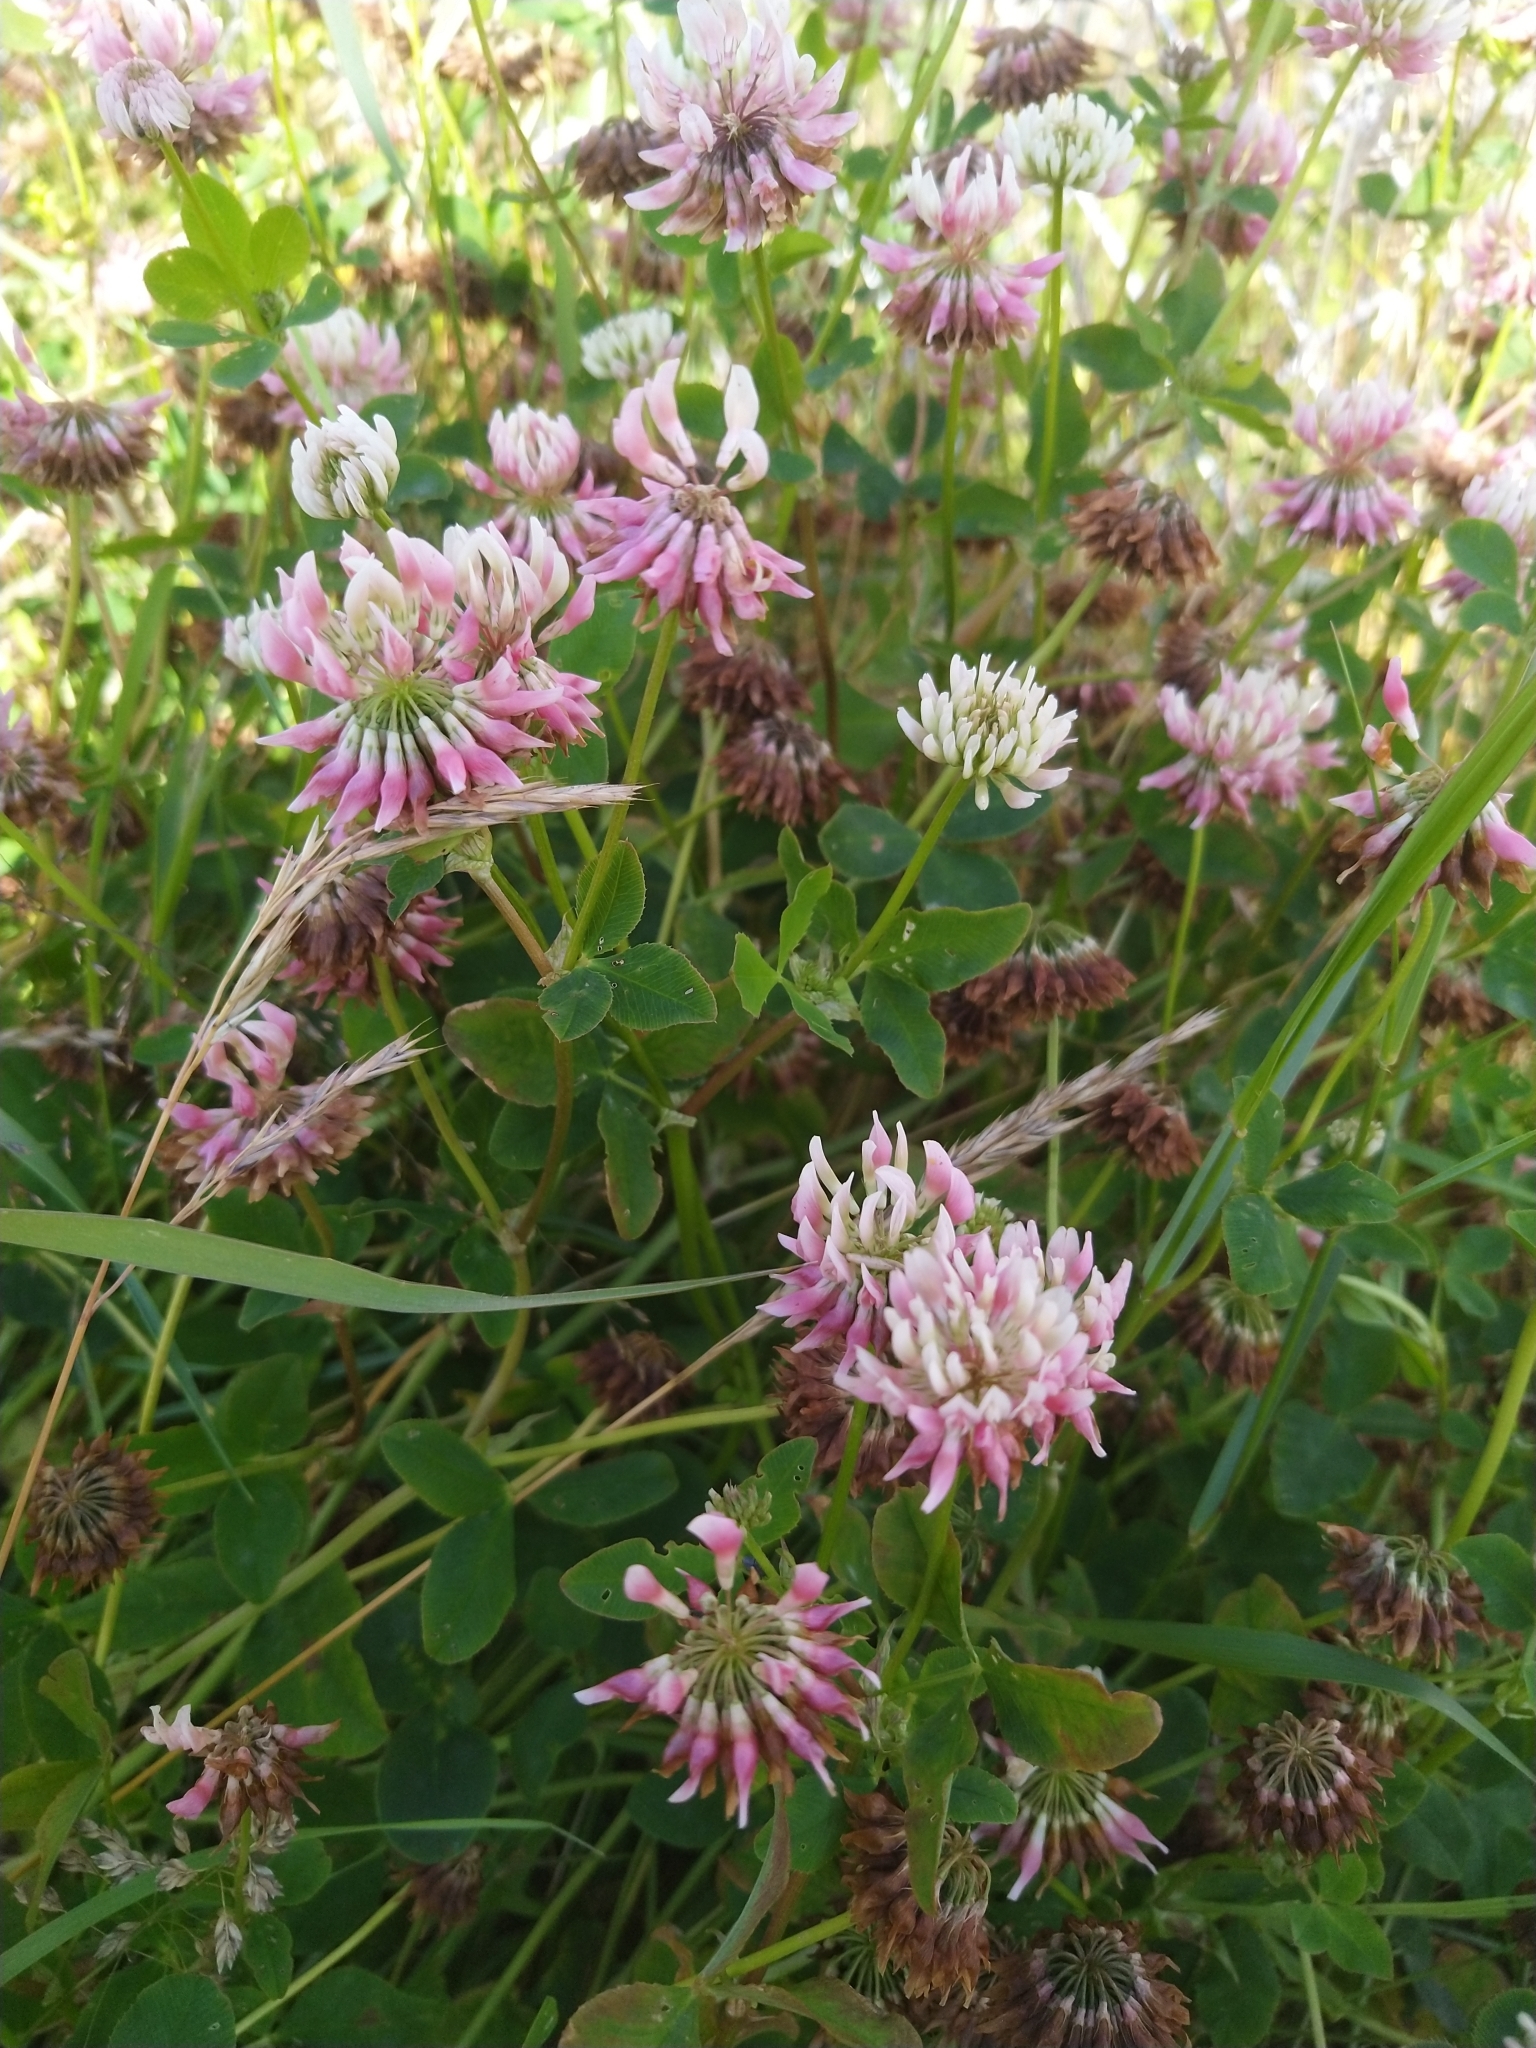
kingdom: Plantae
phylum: Tracheophyta
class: Magnoliopsida
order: Fabales
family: Fabaceae
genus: Trifolium
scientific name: Trifolium hybridum
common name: Alsike clover
